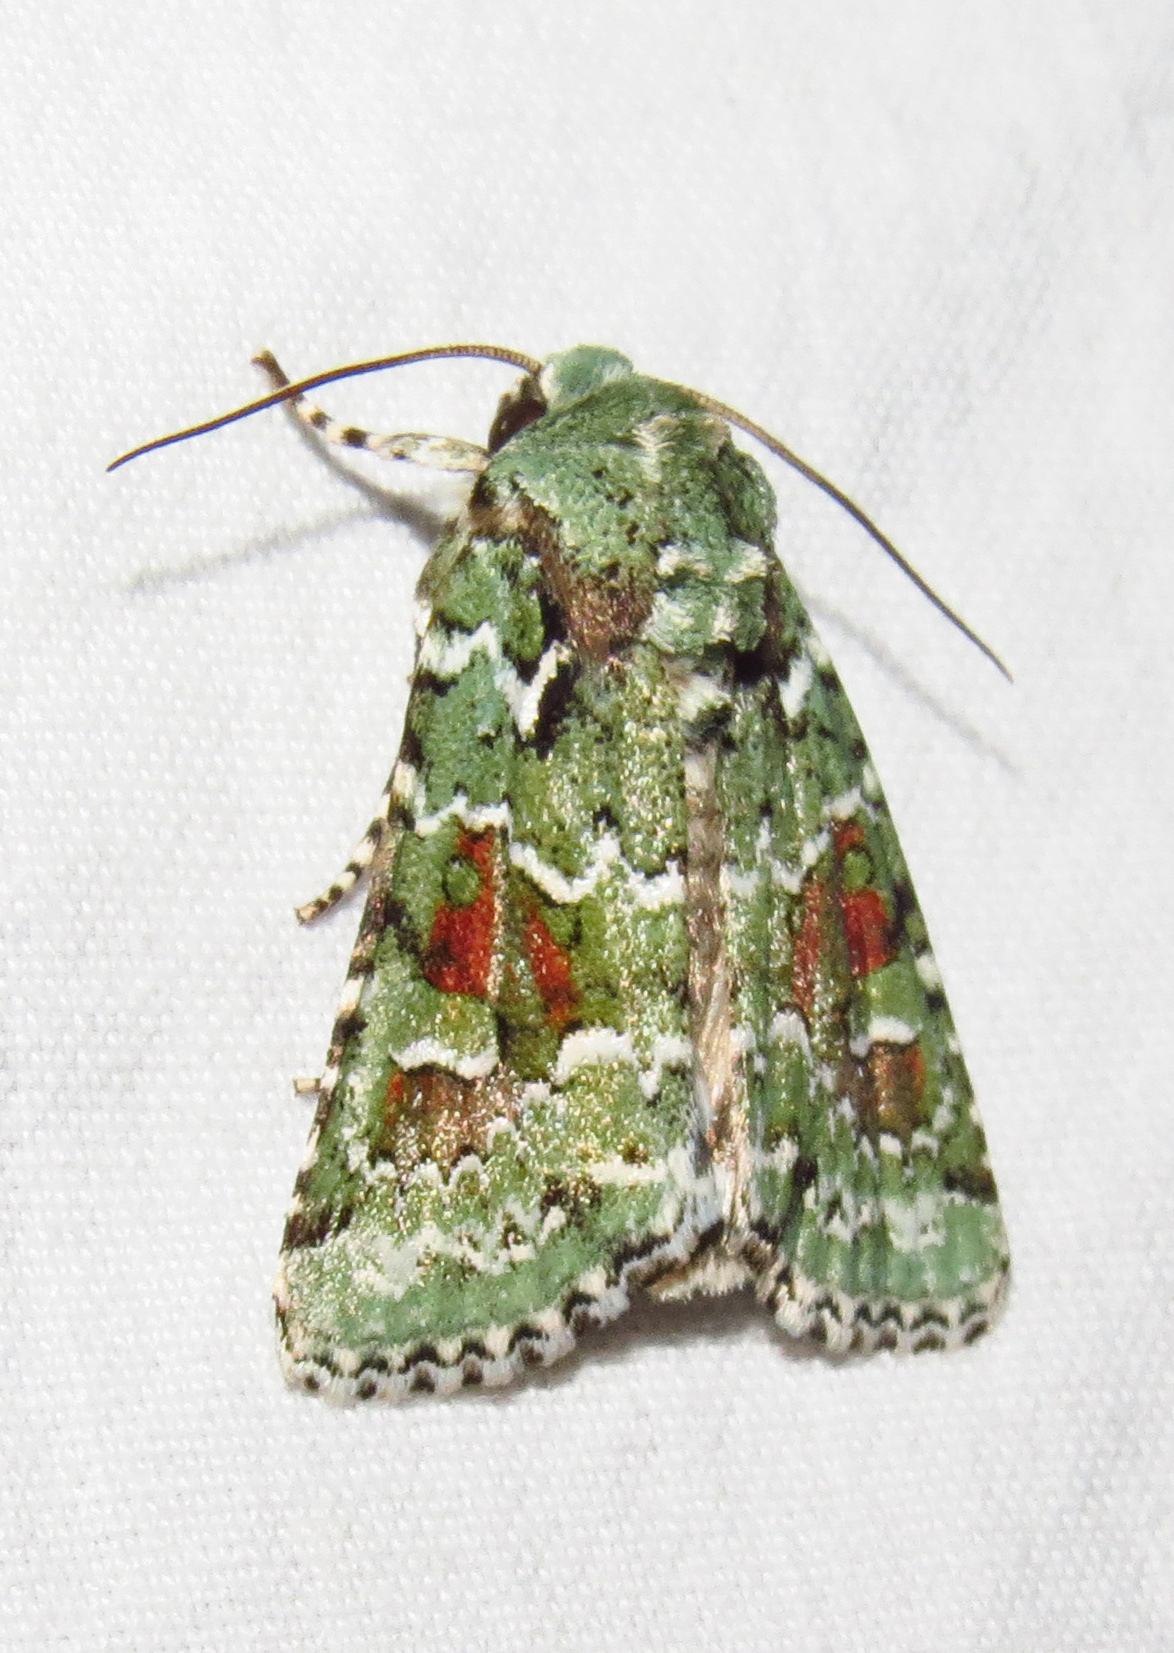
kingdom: Animalia
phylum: Arthropoda
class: Insecta
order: Lepidoptera
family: Noctuidae
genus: Lacinipolia
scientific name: Lacinipolia laudabilis
